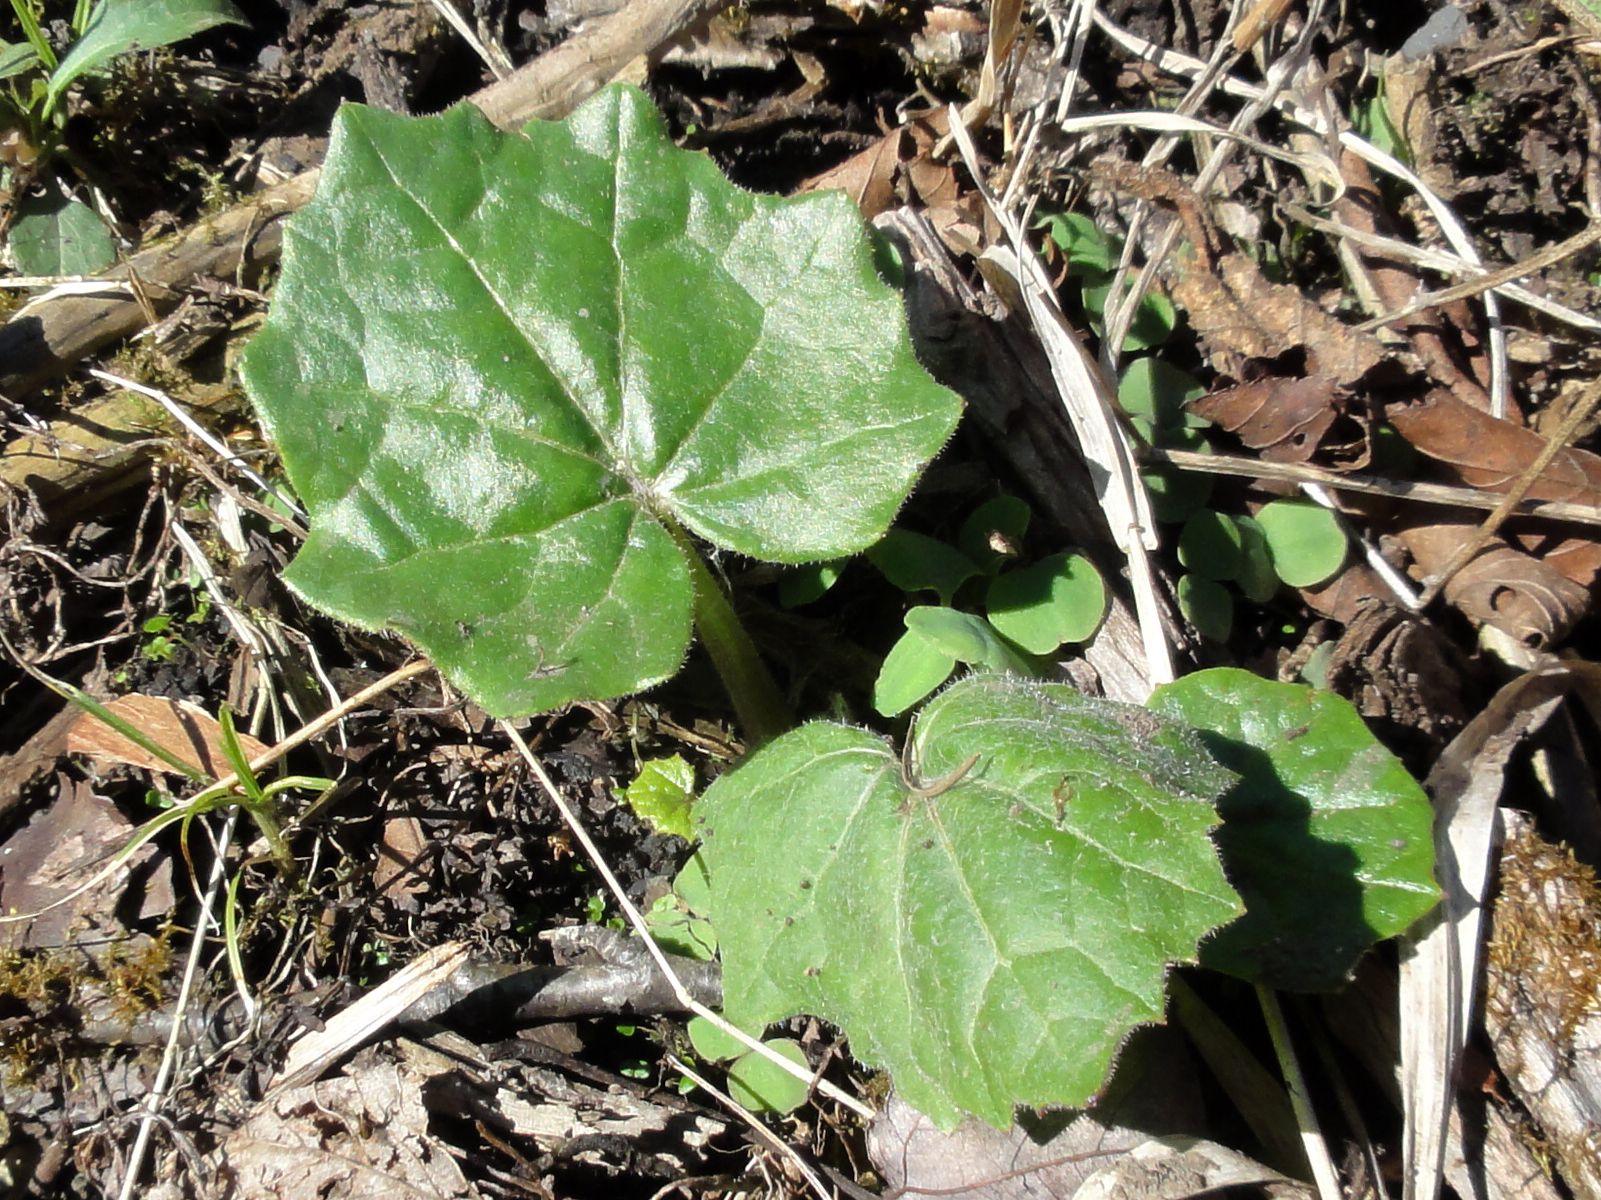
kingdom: Plantae
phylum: Tracheophyta
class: Magnoliopsida
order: Asterales
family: Asteraceae
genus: Tussilago
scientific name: Tussilago farfara
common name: Coltsfoot
